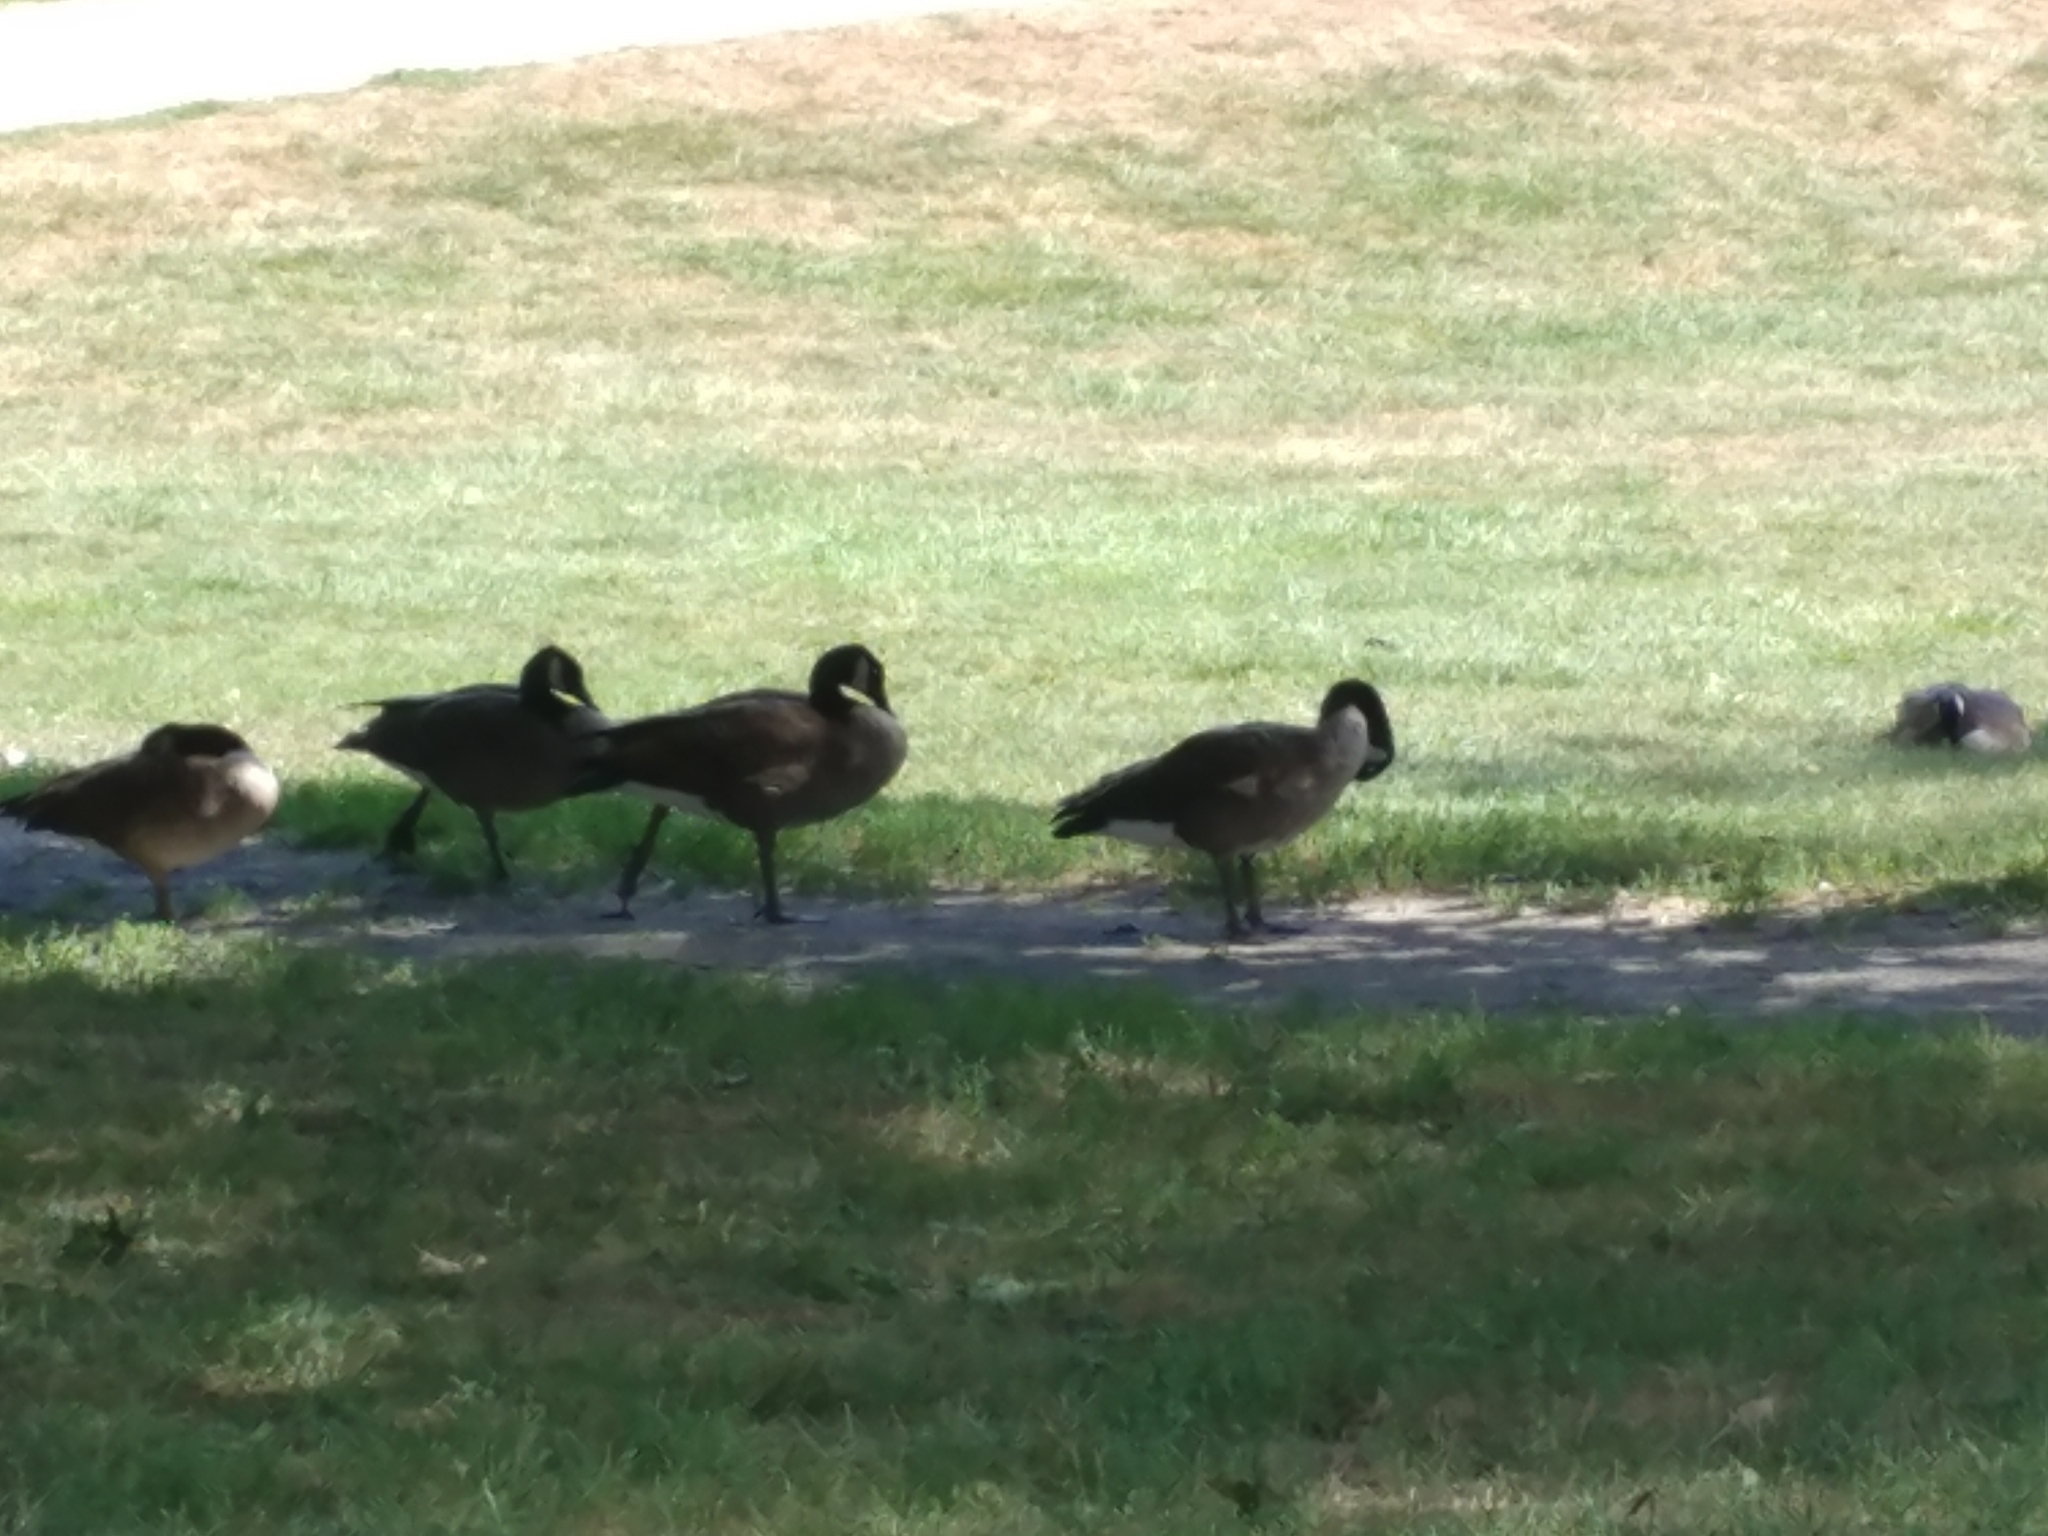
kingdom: Animalia
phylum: Chordata
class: Aves
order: Anseriformes
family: Anatidae
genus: Branta
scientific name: Branta canadensis
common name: Canada goose
